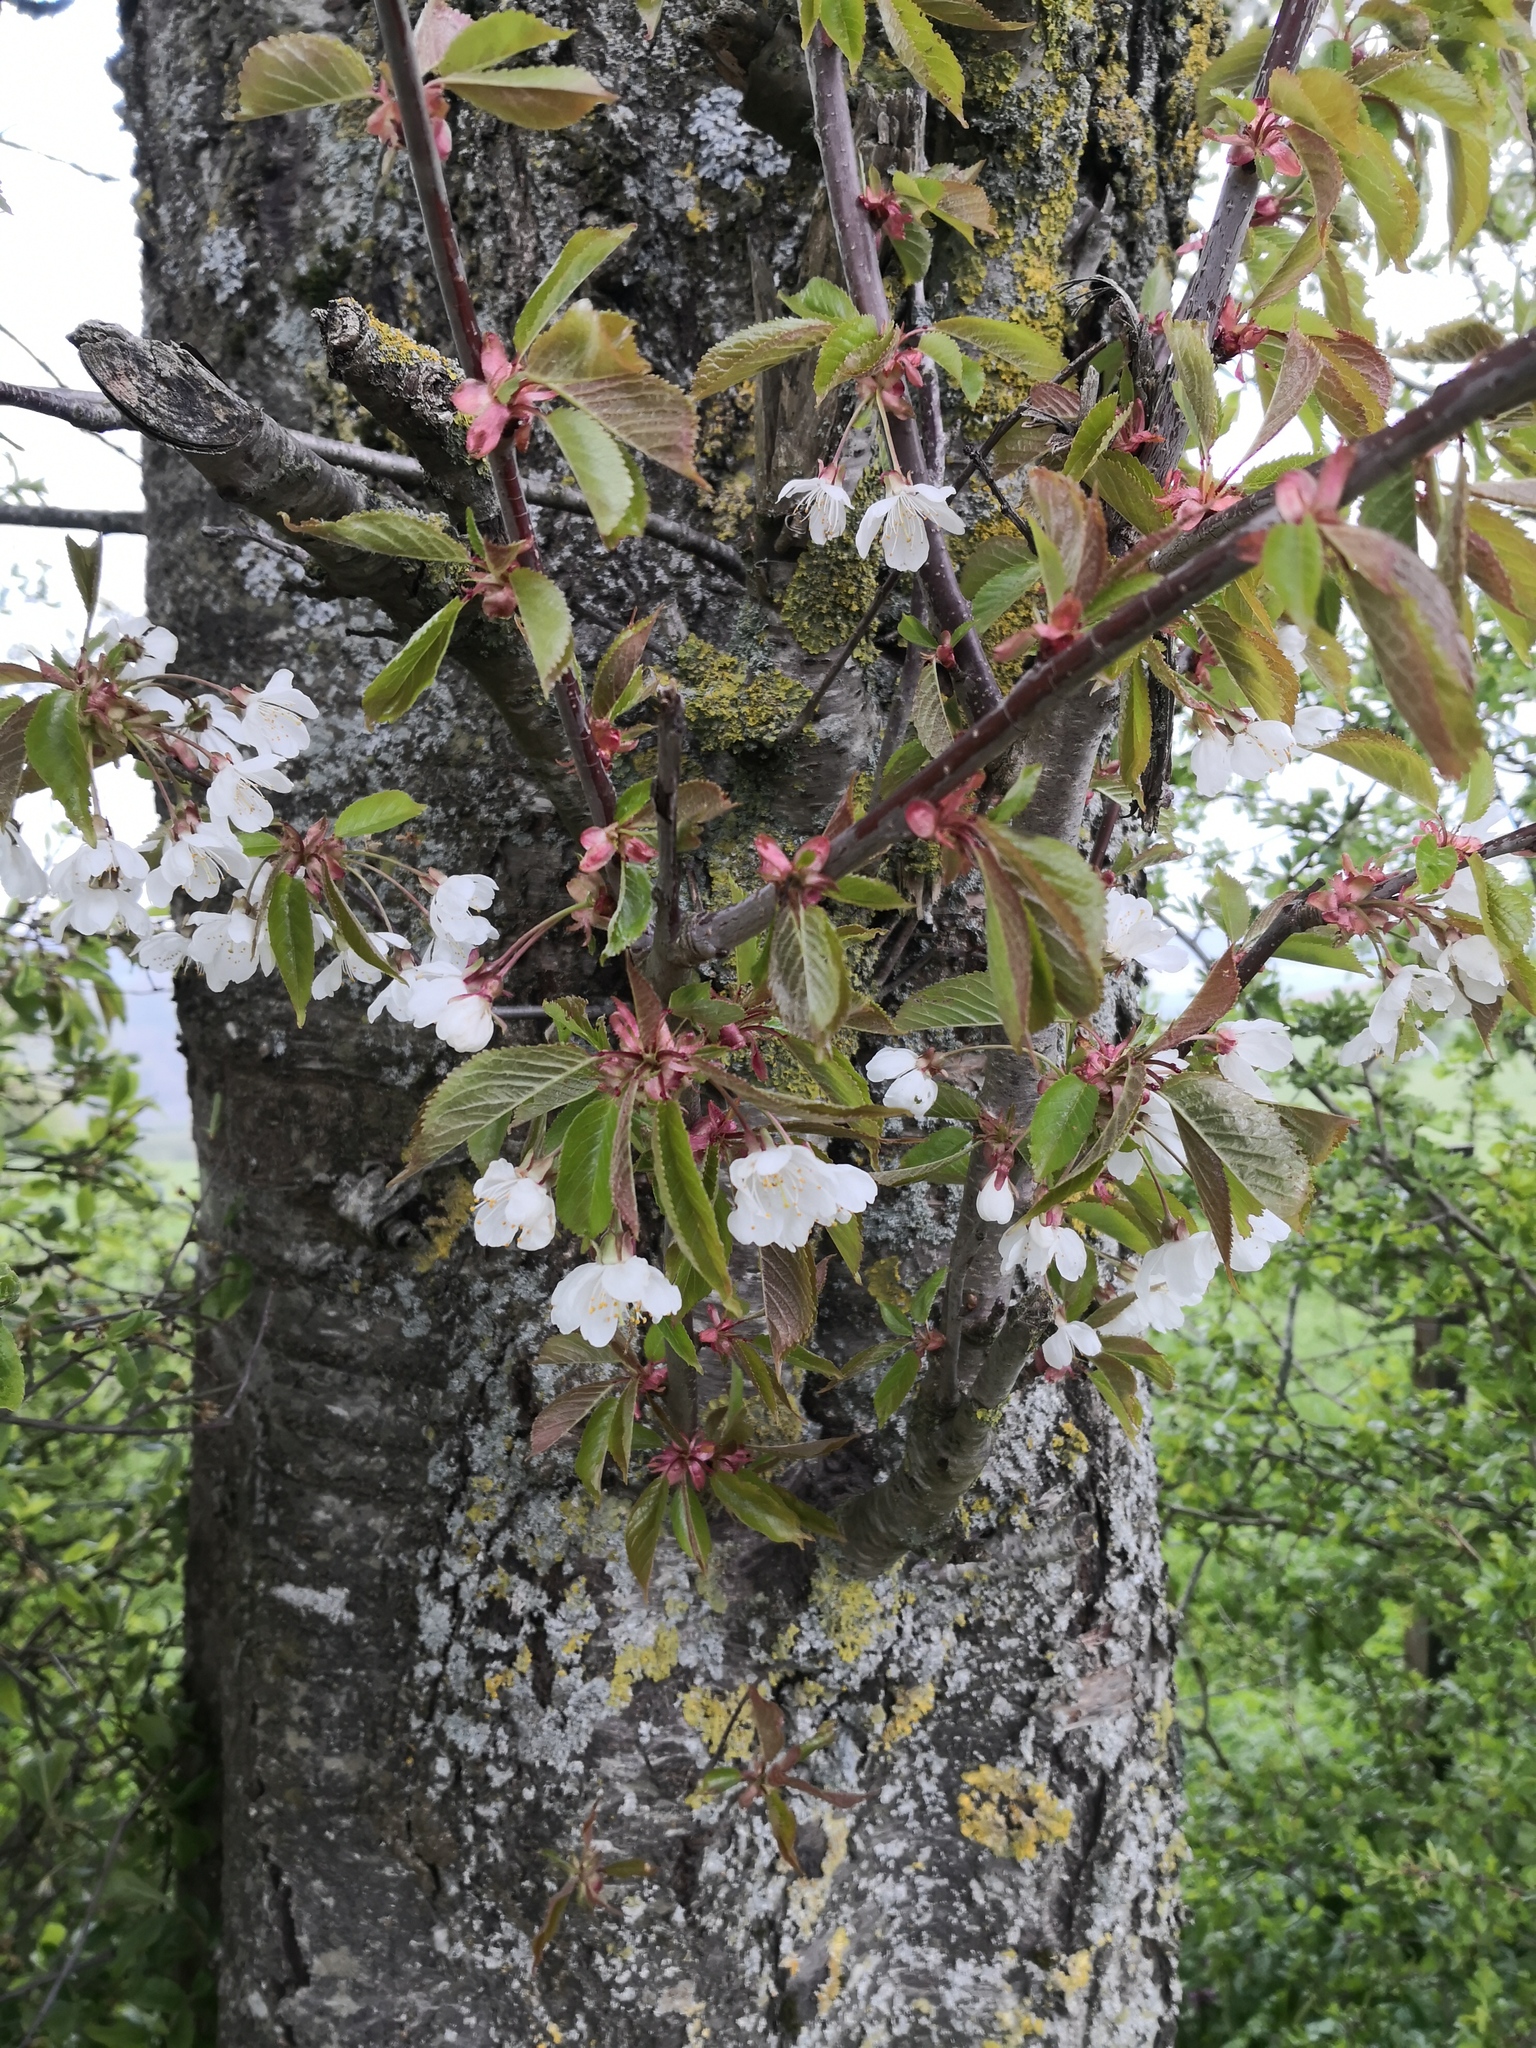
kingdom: Plantae
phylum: Tracheophyta
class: Magnoliopsida
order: Rosales
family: Rosaceae
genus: Prunus
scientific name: Prunus avium
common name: Sweet cherry
